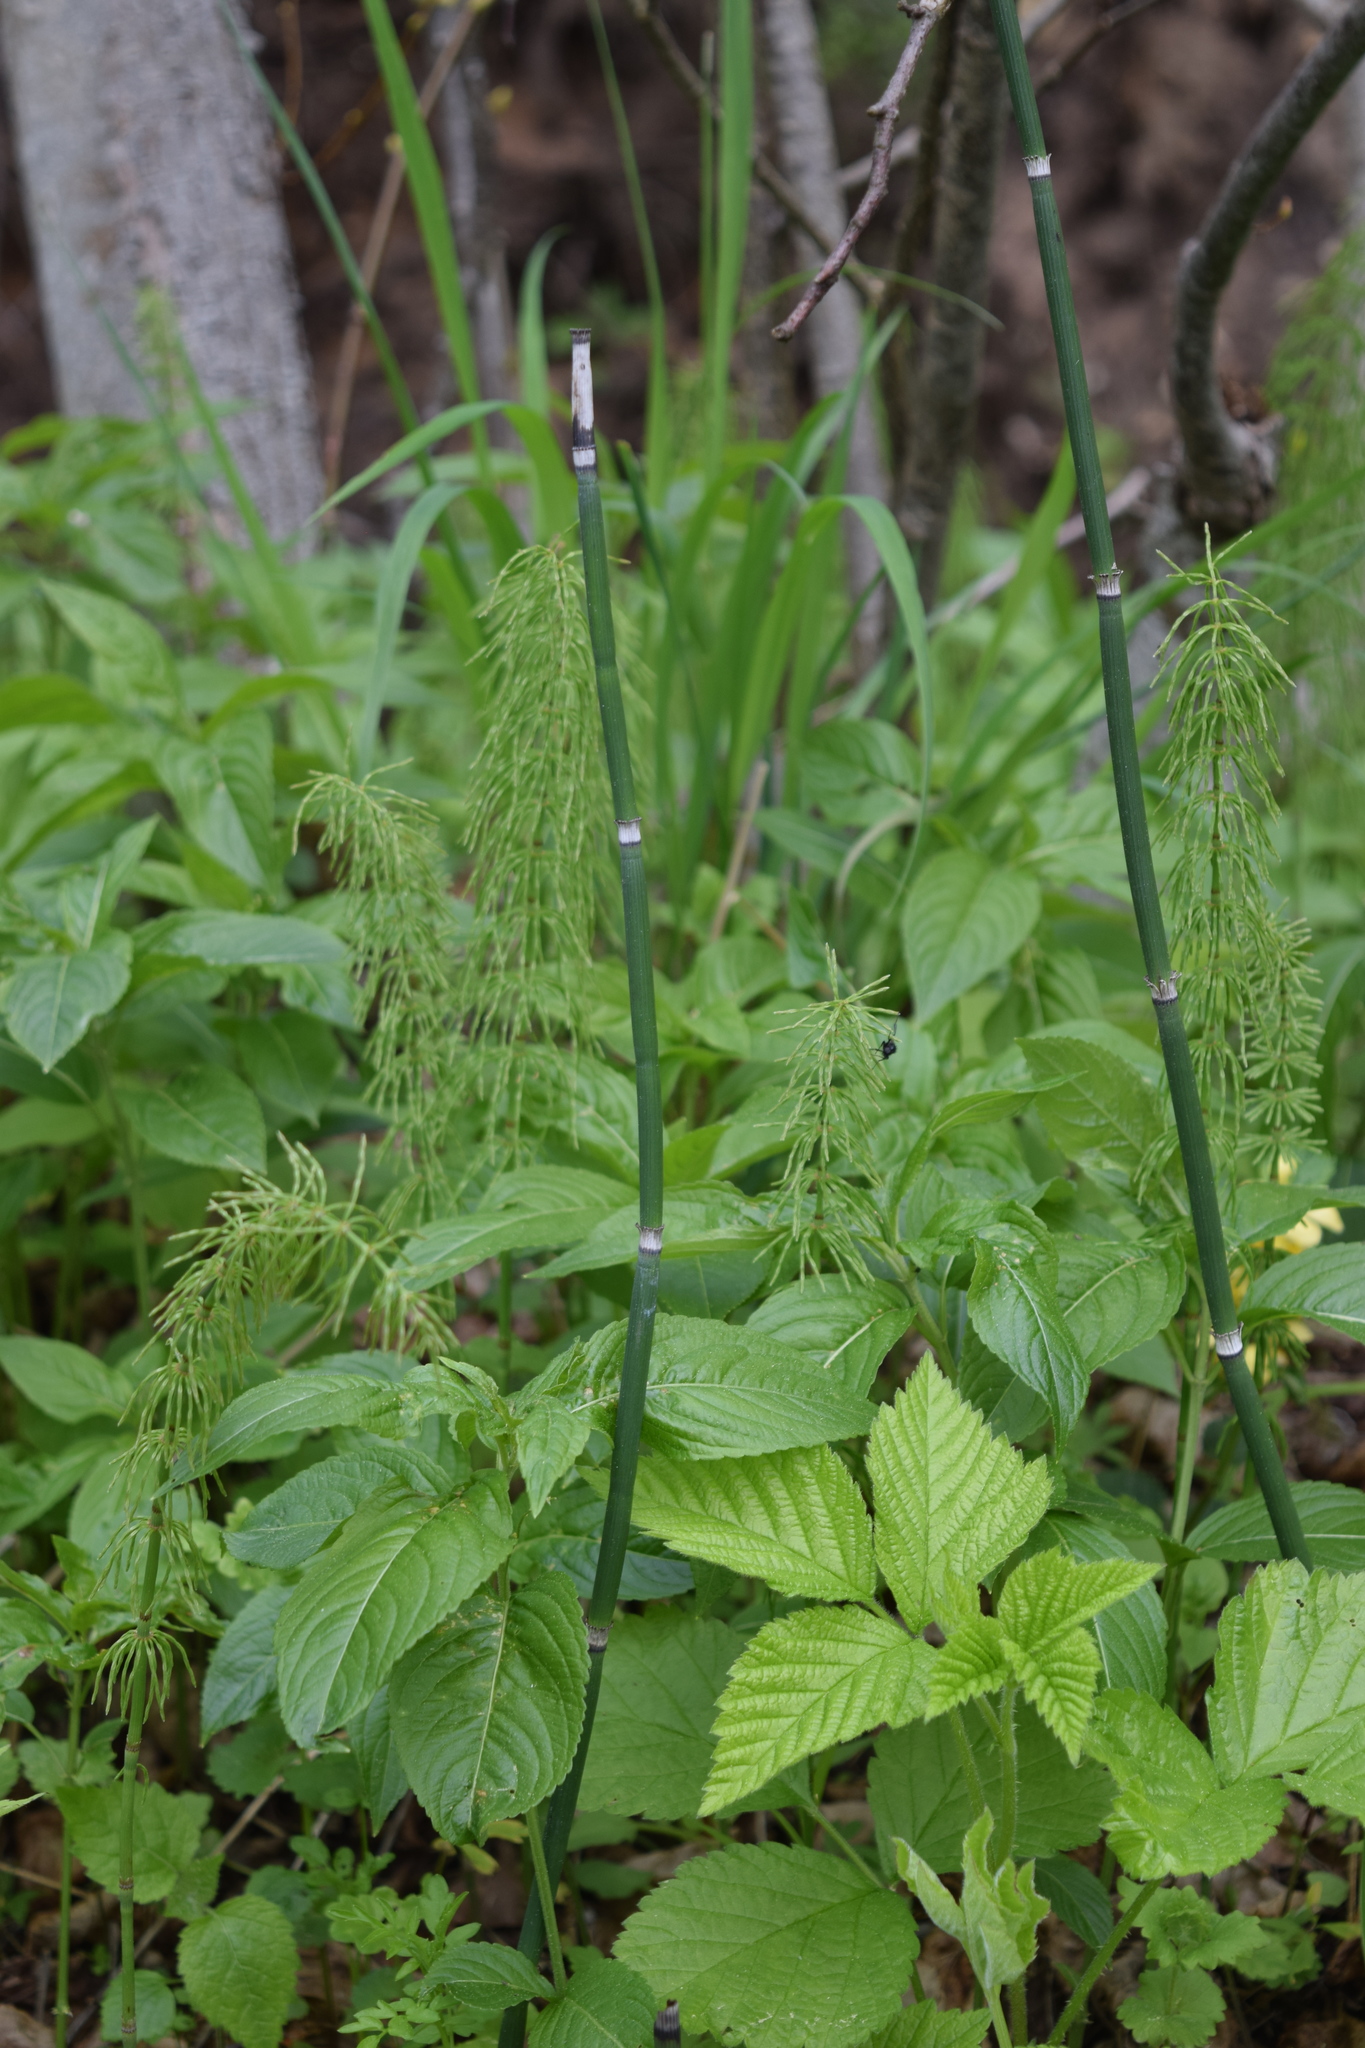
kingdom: Plantae
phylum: Tracheophyta
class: Polypodiopsida
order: Equisetales
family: Equisetaceae
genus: Equisetum
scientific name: Equisetum hyemale
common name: Rough horsetail
